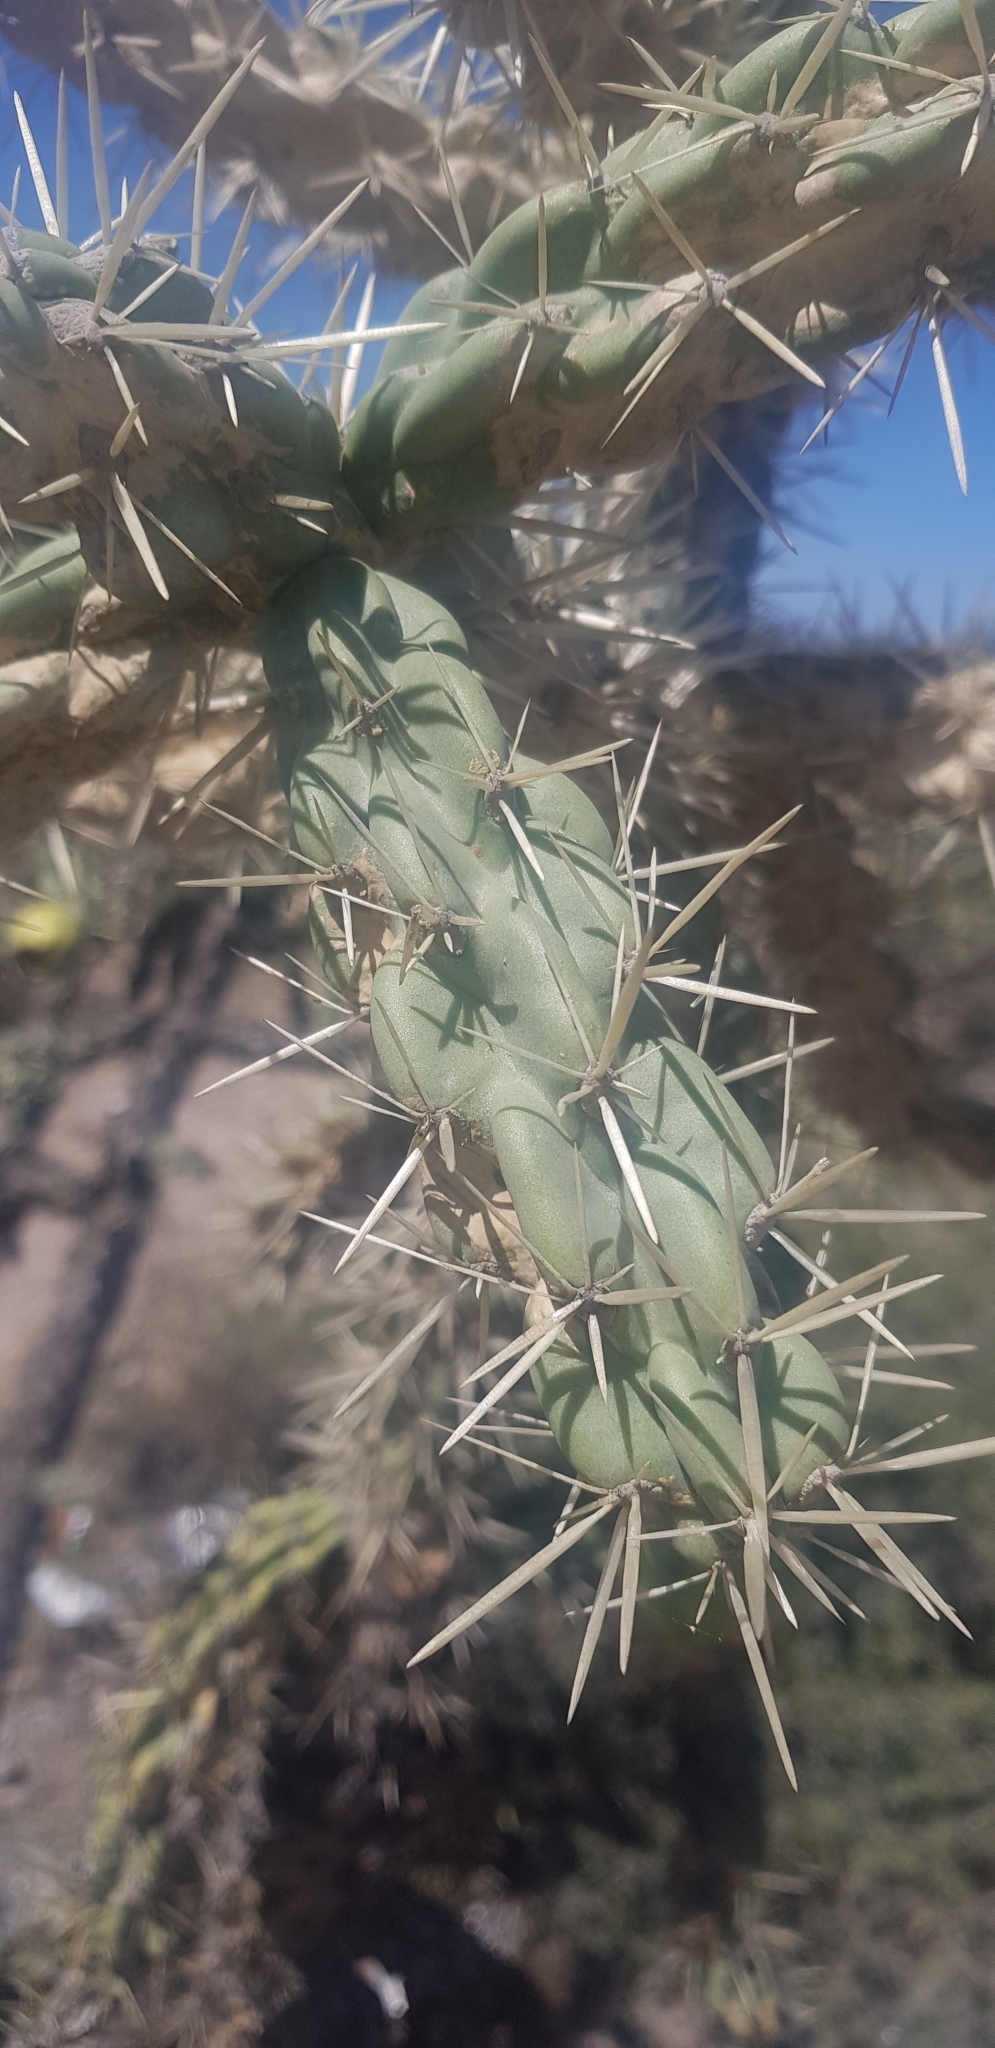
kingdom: Plantae
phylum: Tracheophyta
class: Magnoliopsida
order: Caryophyllales
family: Cactaceae
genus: Cylindropuntia
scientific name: Cylindropuntia imbricata
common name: Candelabrum cactus
